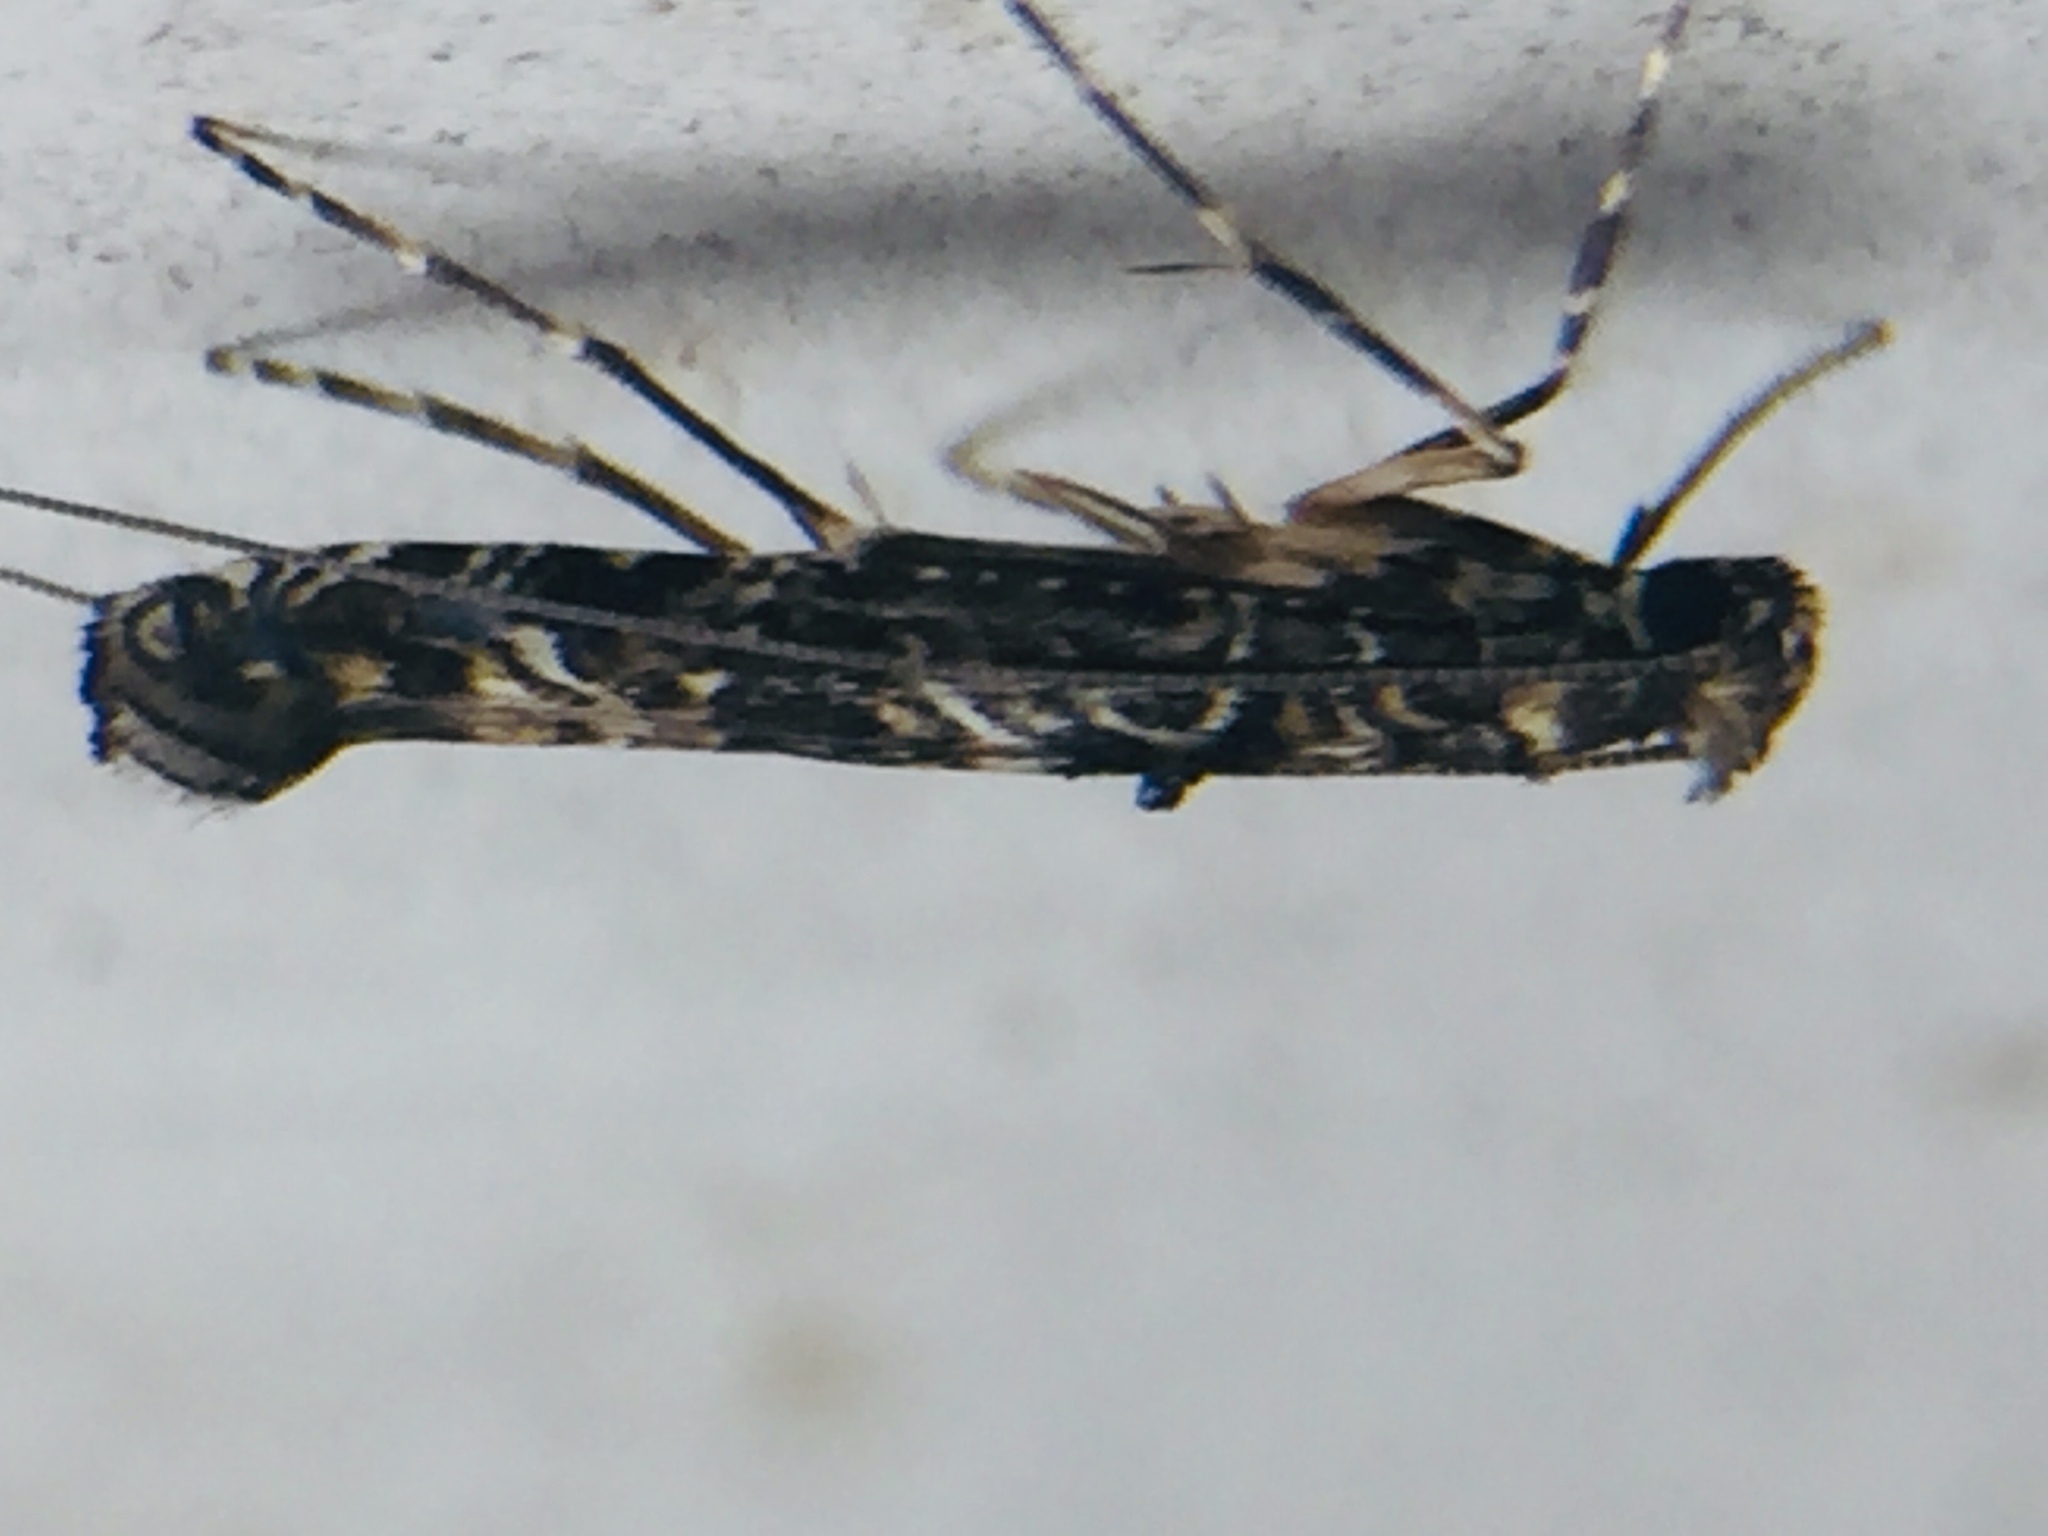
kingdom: Animalia
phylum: Arthropoda
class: Insecta
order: Lepidoptera
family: Gracillariidae
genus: Conopomorpha
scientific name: Conopomorpha cyanospila
